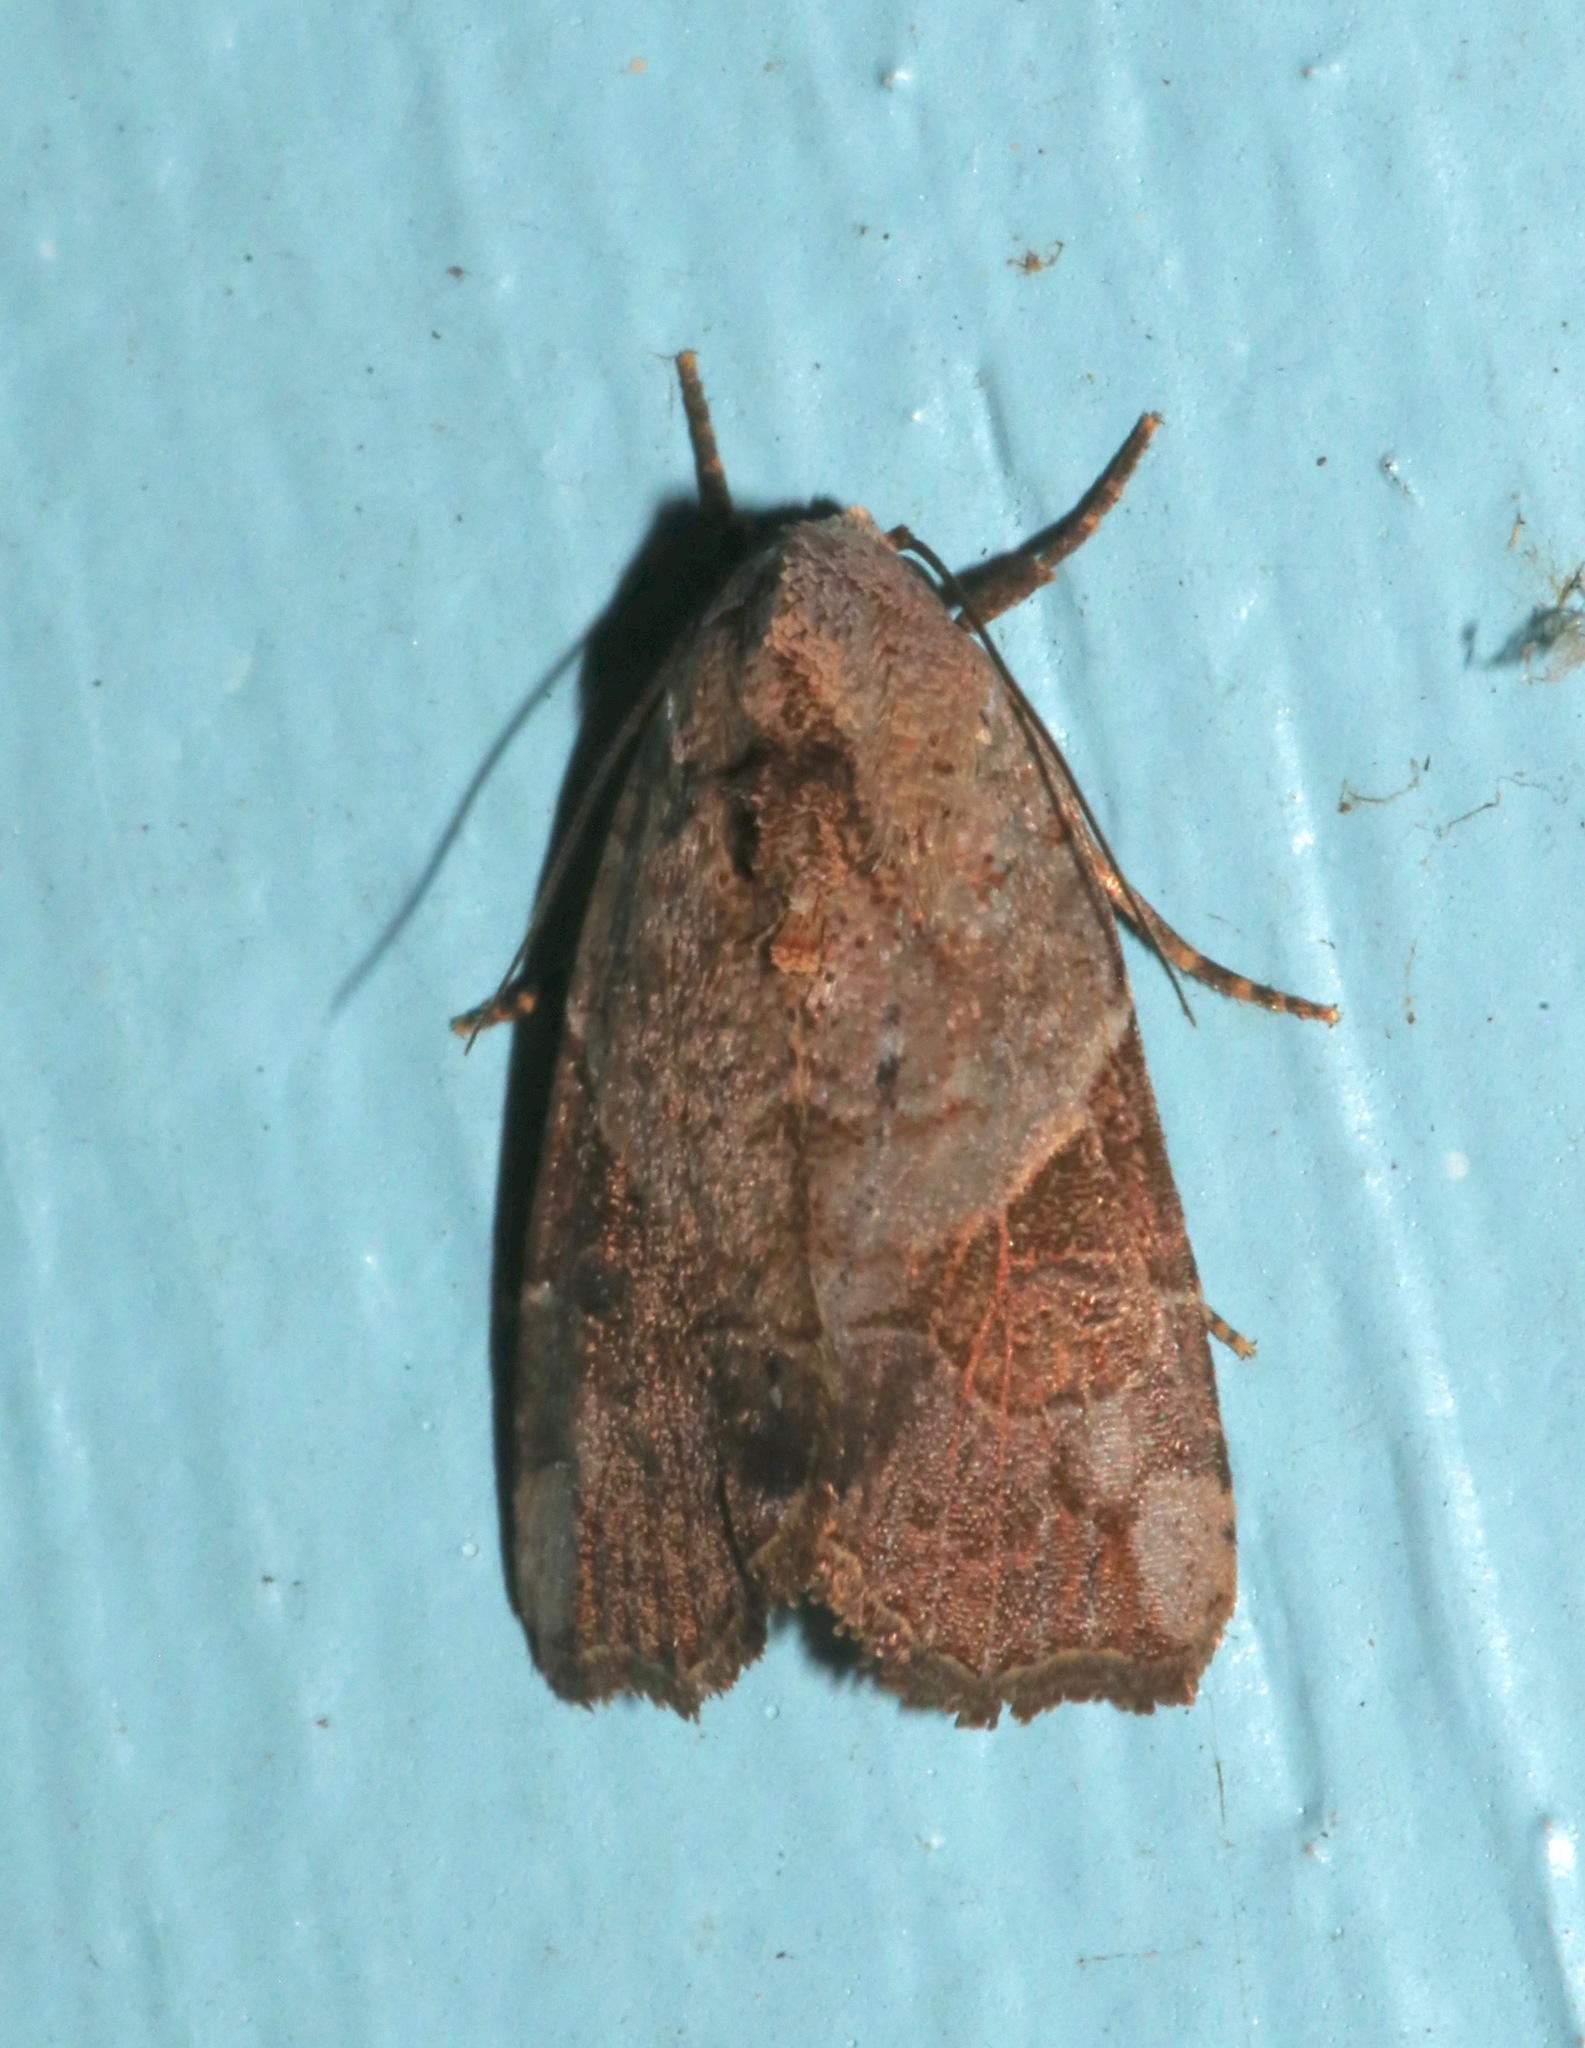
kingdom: Animalia
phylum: Arthropoda
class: Insecta
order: Lepidoptera
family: Noctuidae
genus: Gonodes
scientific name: Gonodes liquida
